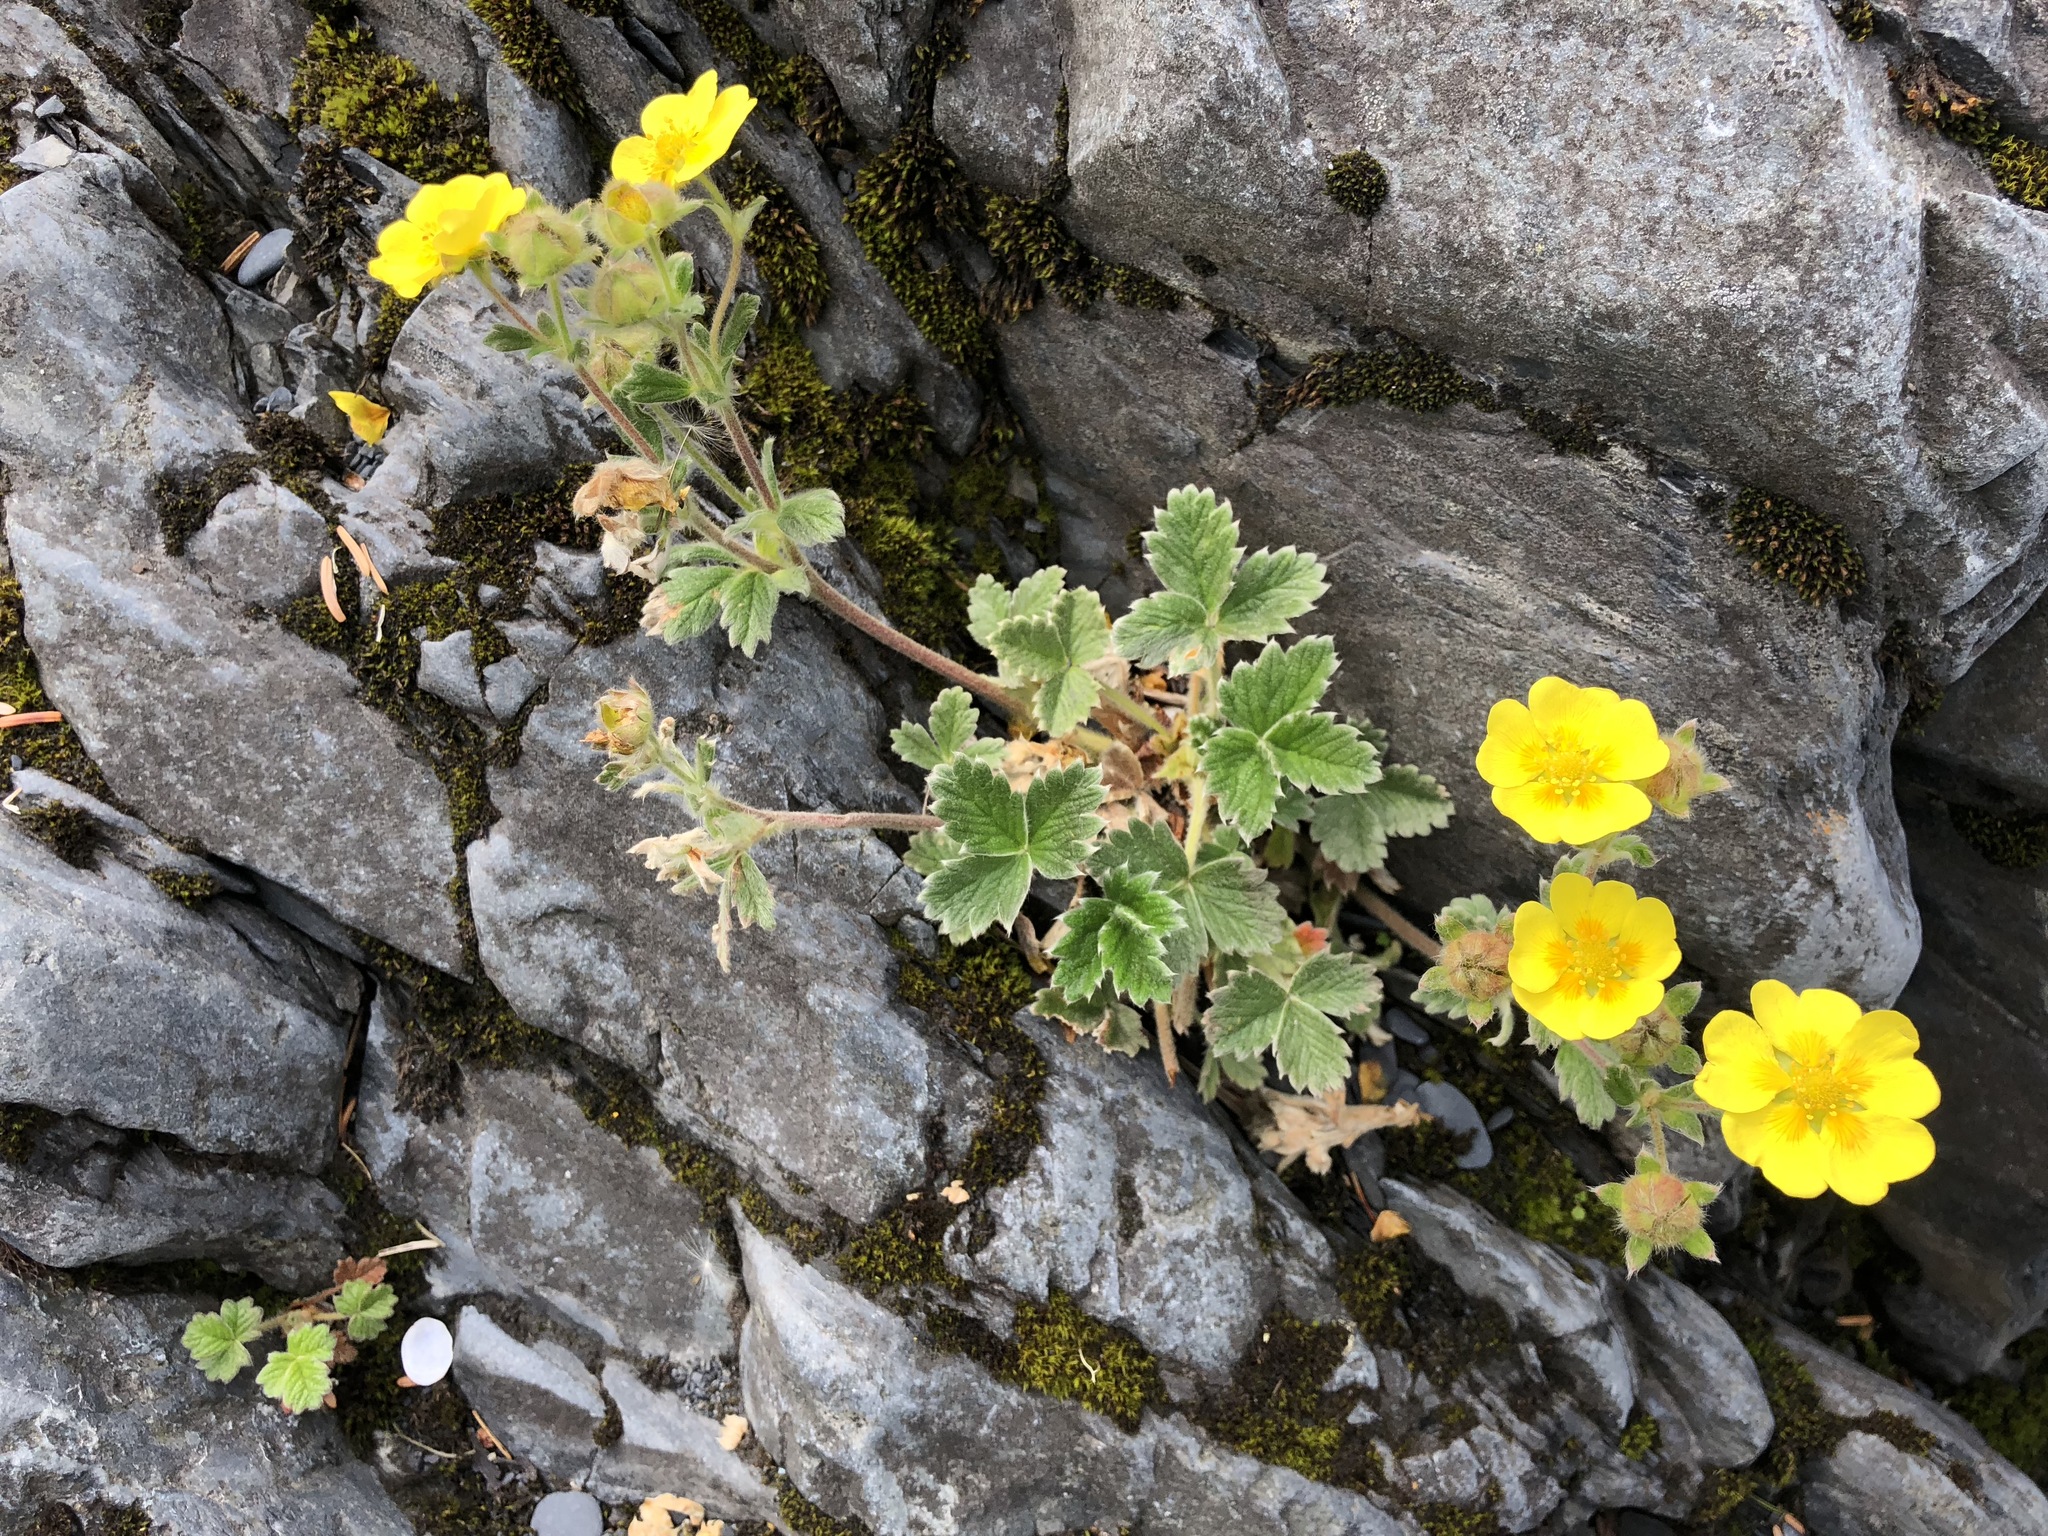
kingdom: Plantae
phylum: Tracheophyta
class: Magnoliopsida
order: Rosales
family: Rosaceae
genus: Potentilla
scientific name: Potentilla villosa
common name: Northern cinquefoil
